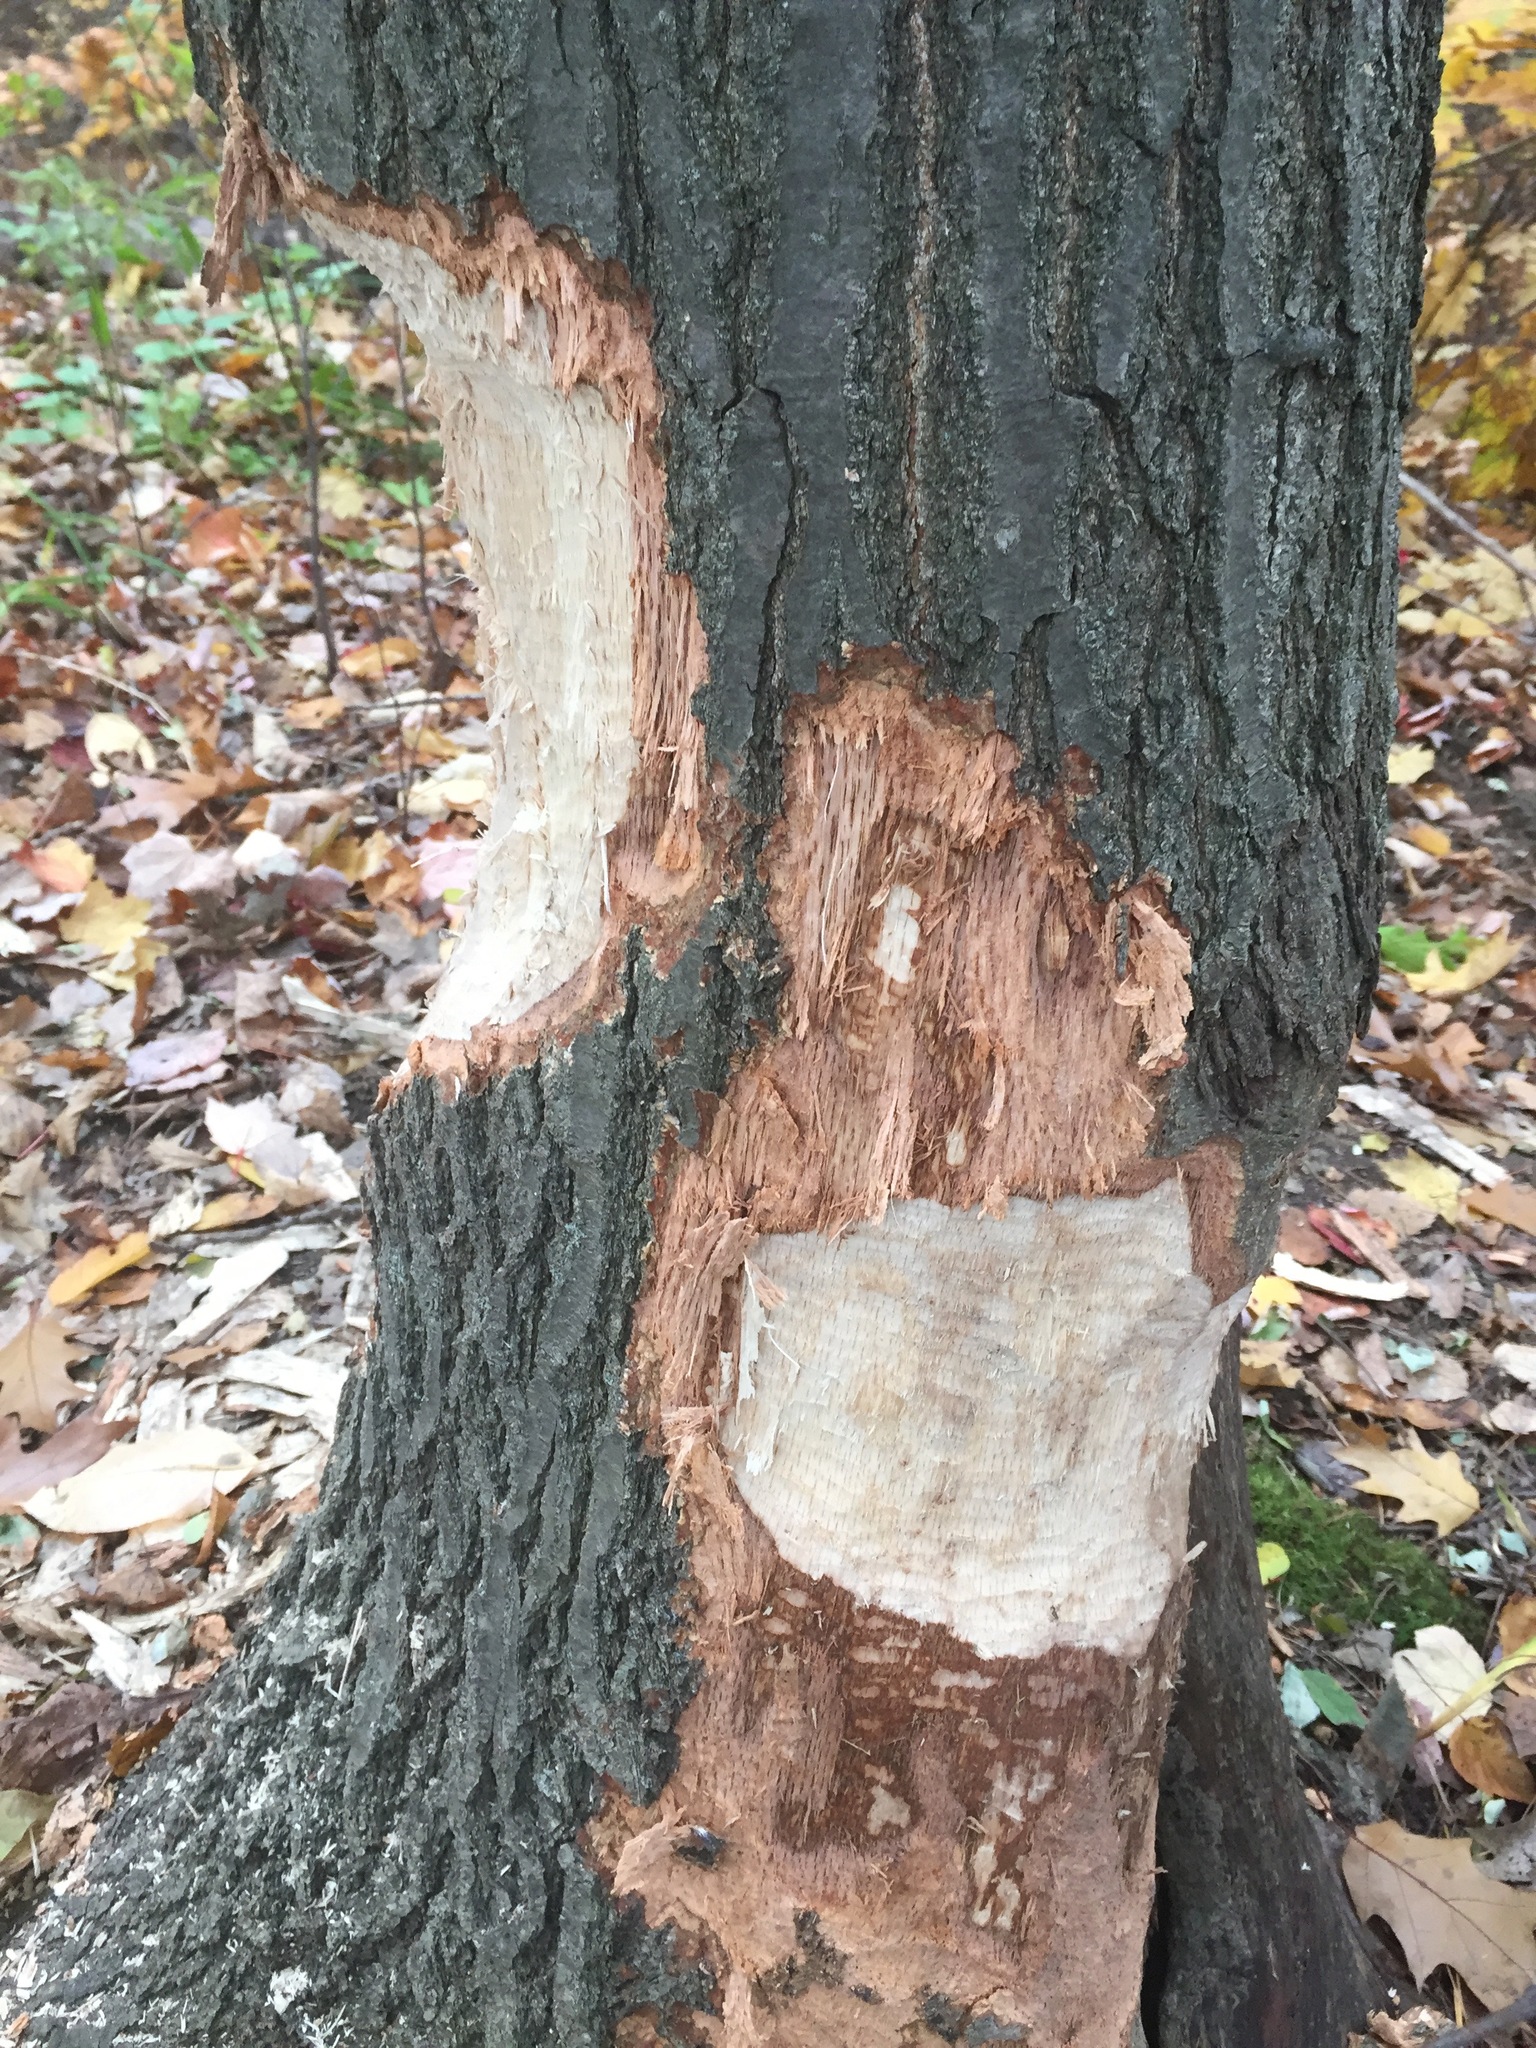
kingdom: Animalia
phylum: Chordata
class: Mammalia
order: Rodentia
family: Castoridae
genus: Castor
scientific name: Castor canadensis
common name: American beaver
